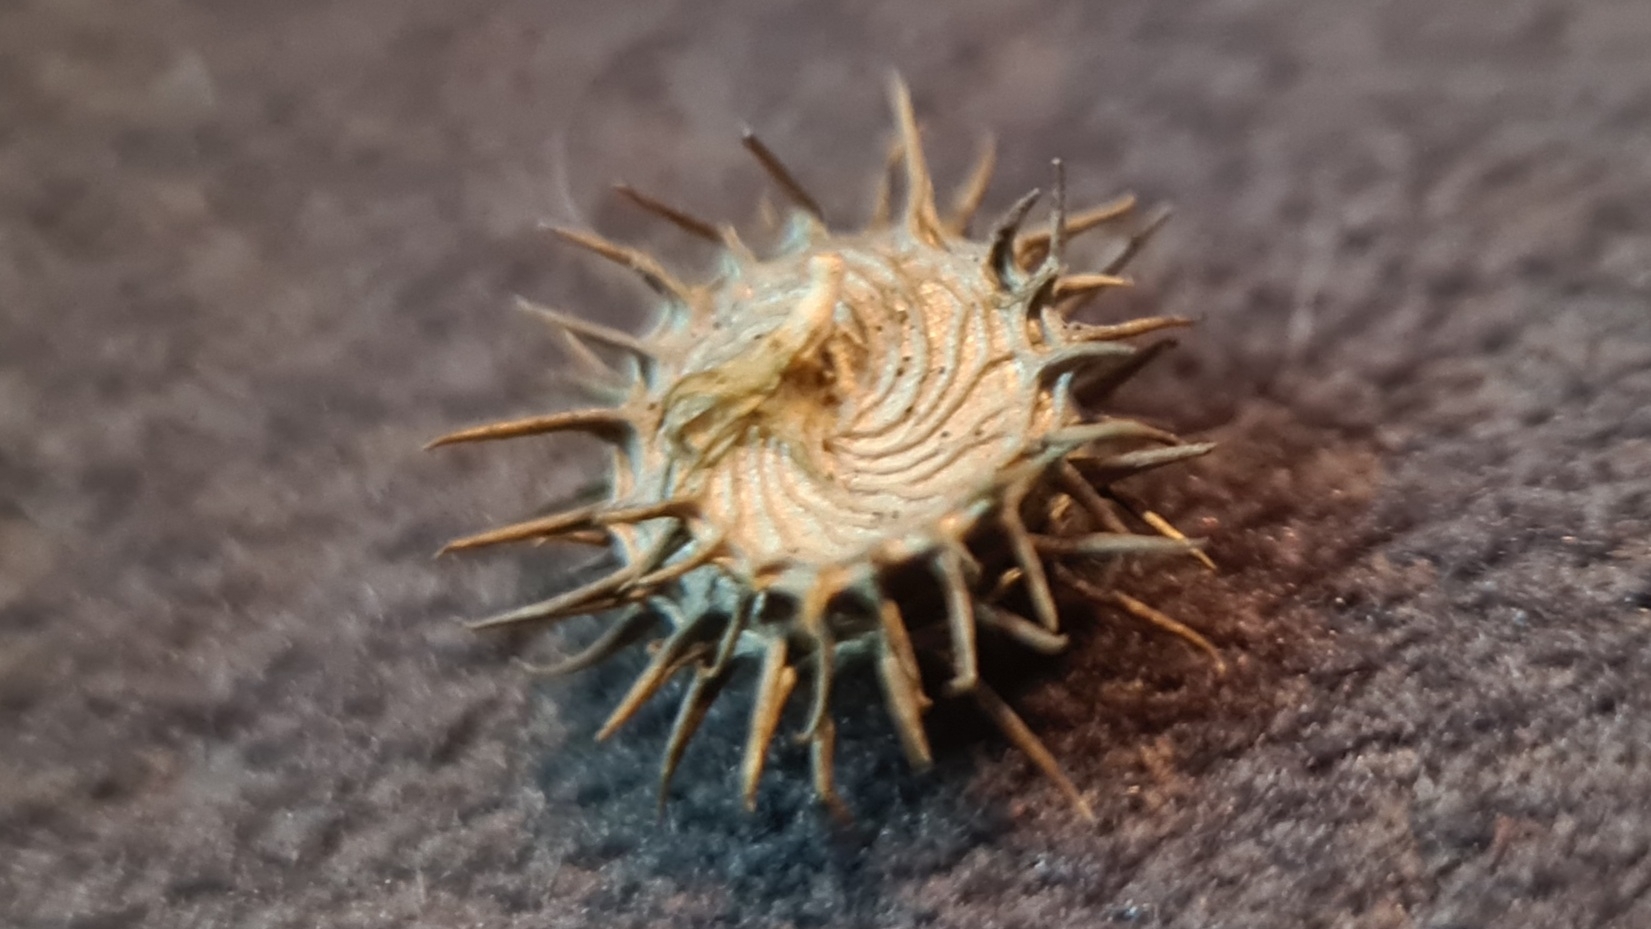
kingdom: Plantae
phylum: Tracheophyta
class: Magnoliopsida
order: Fabales
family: Fabaceae
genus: Medicago
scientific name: Medicago polymorpha
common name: Burclover
